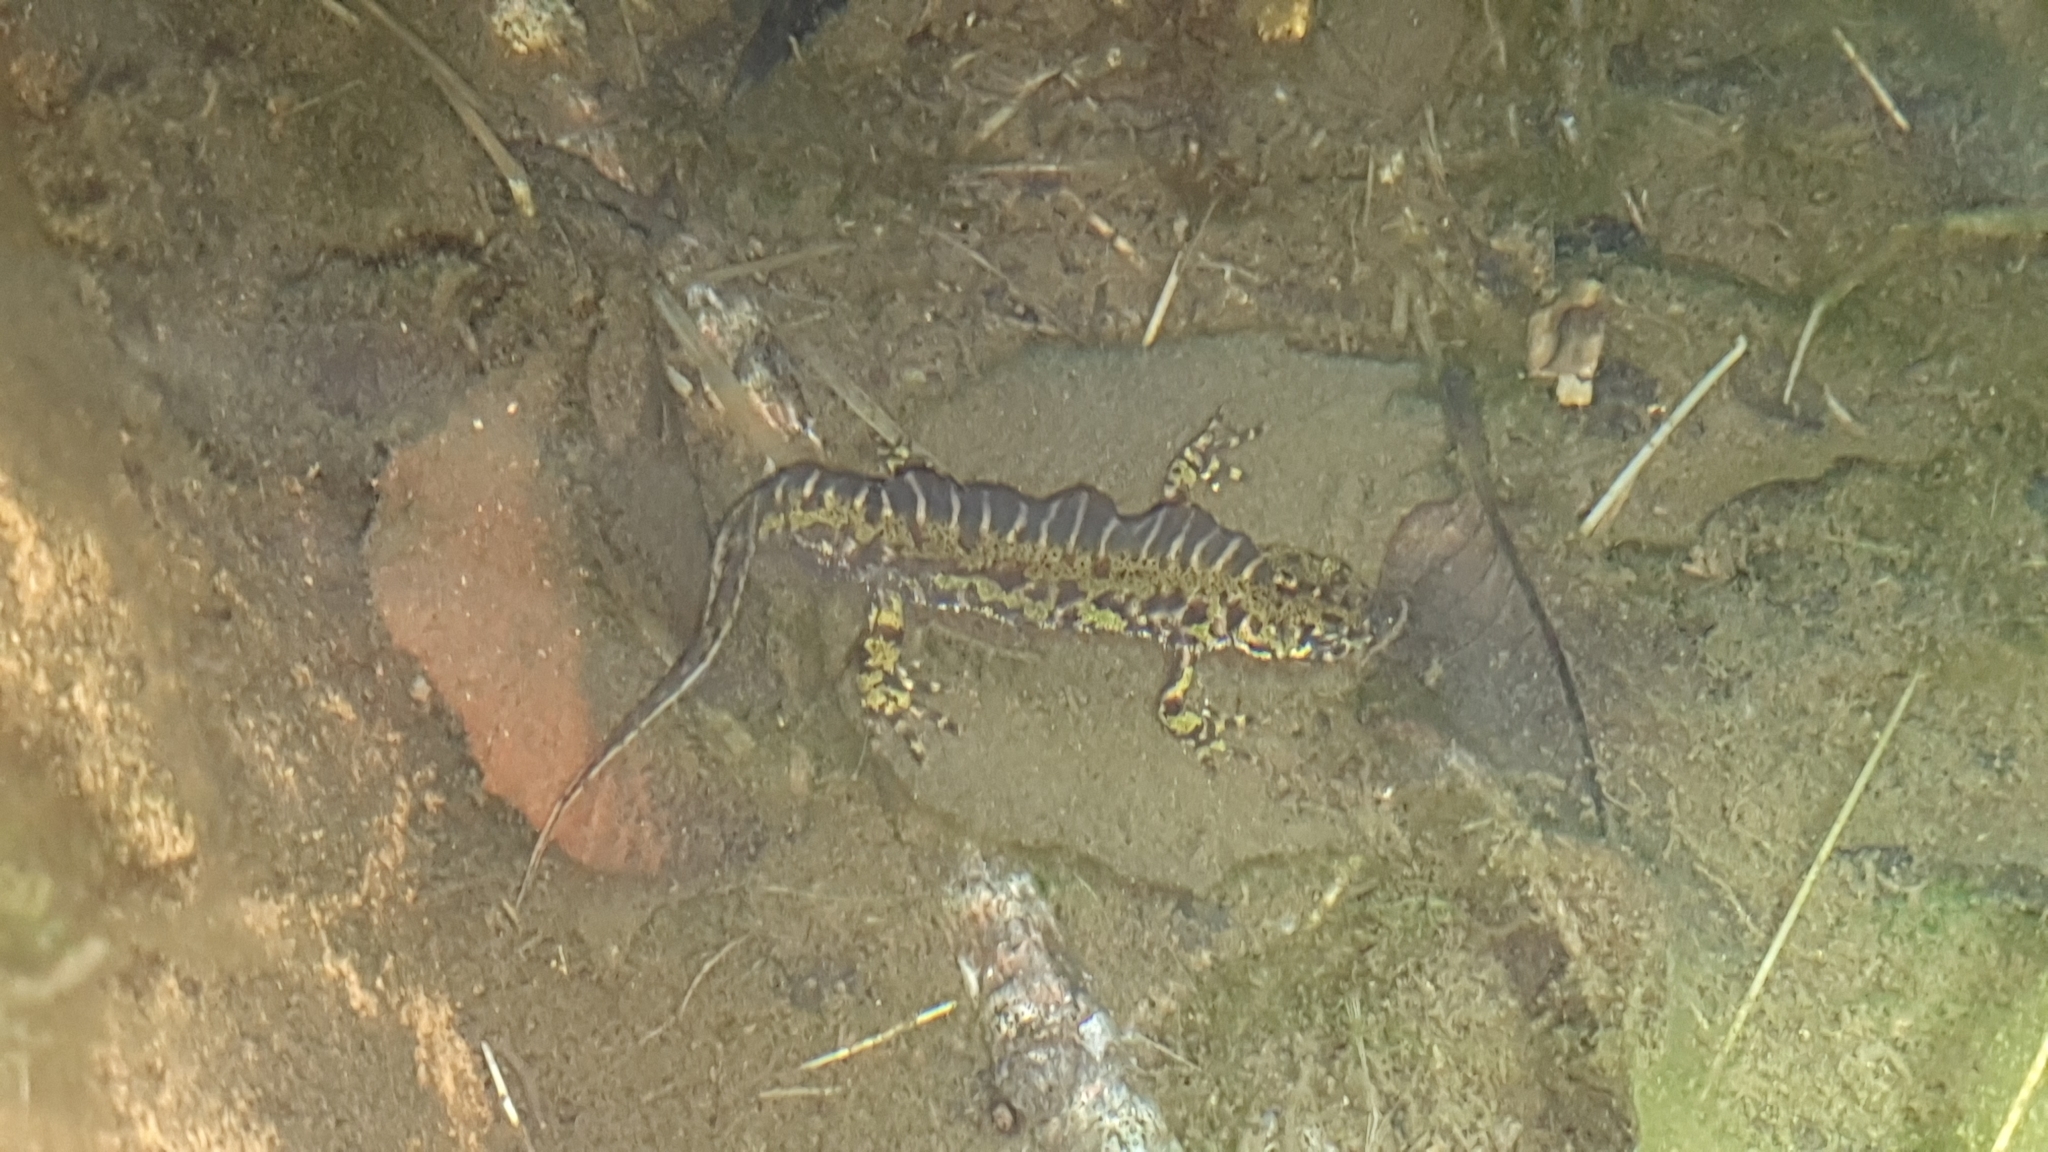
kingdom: Animalia
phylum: Chordata
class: Amphibia
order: Caudata
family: Salamandridae
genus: Triturus
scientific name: Triturus marmoratus
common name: Marbled newt
